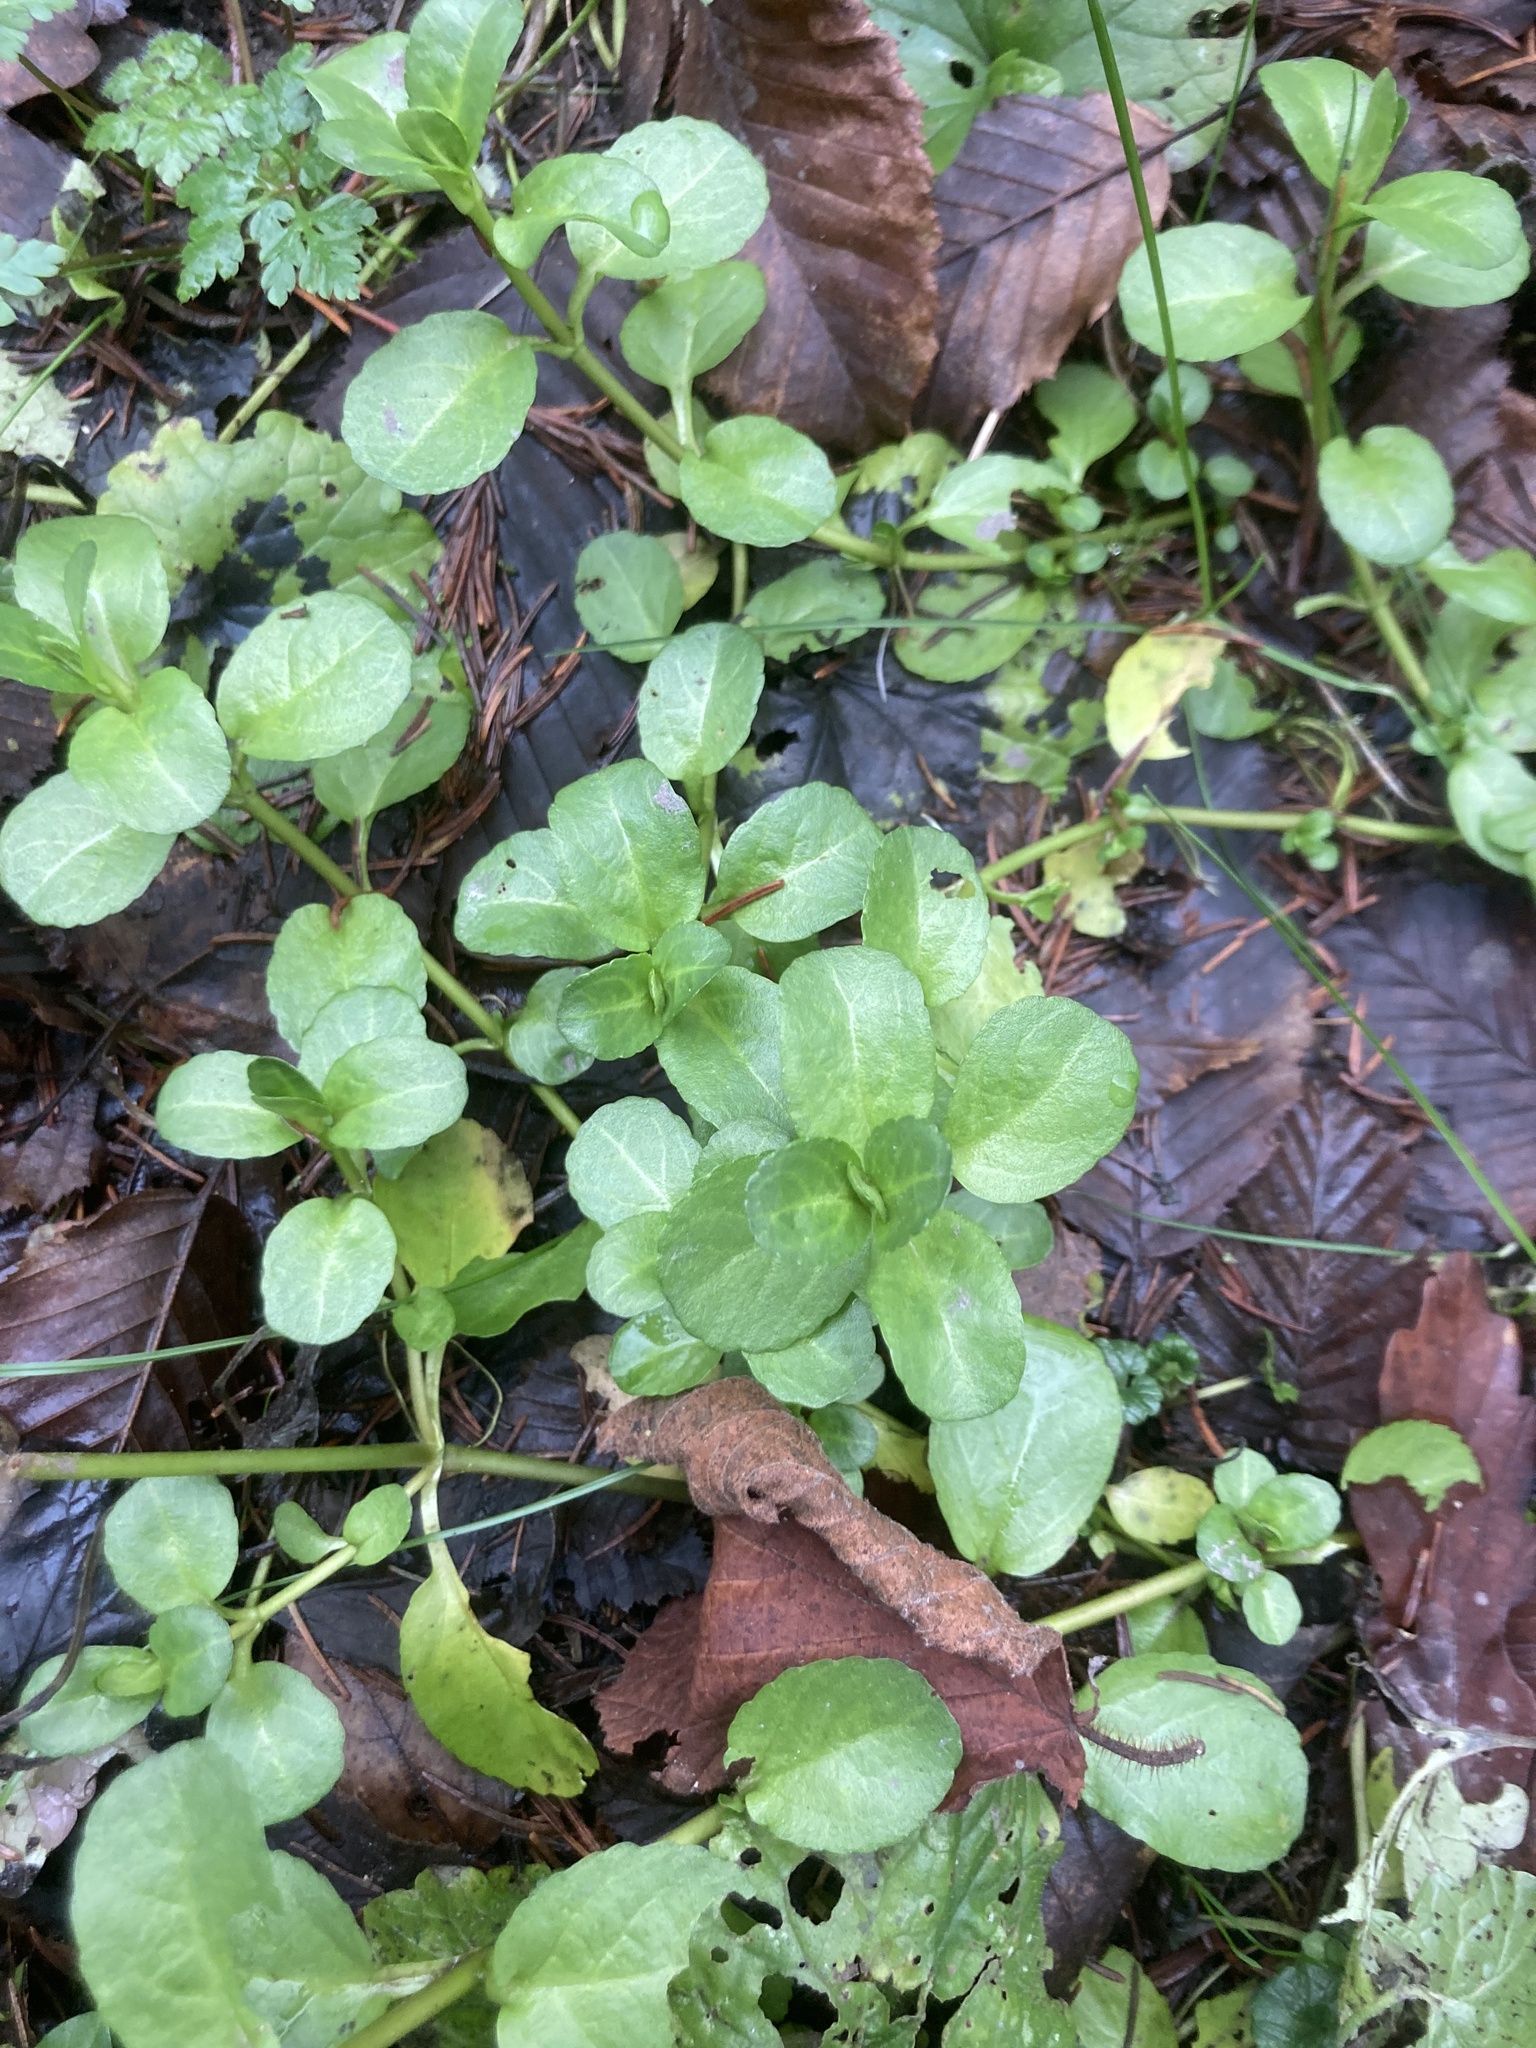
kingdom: Plantae
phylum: Tracheophyta
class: Magnoliopsida
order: Lamiales
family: Plantaginaceae
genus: Veronica
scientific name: Veronica beccabunga
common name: Brooklime
